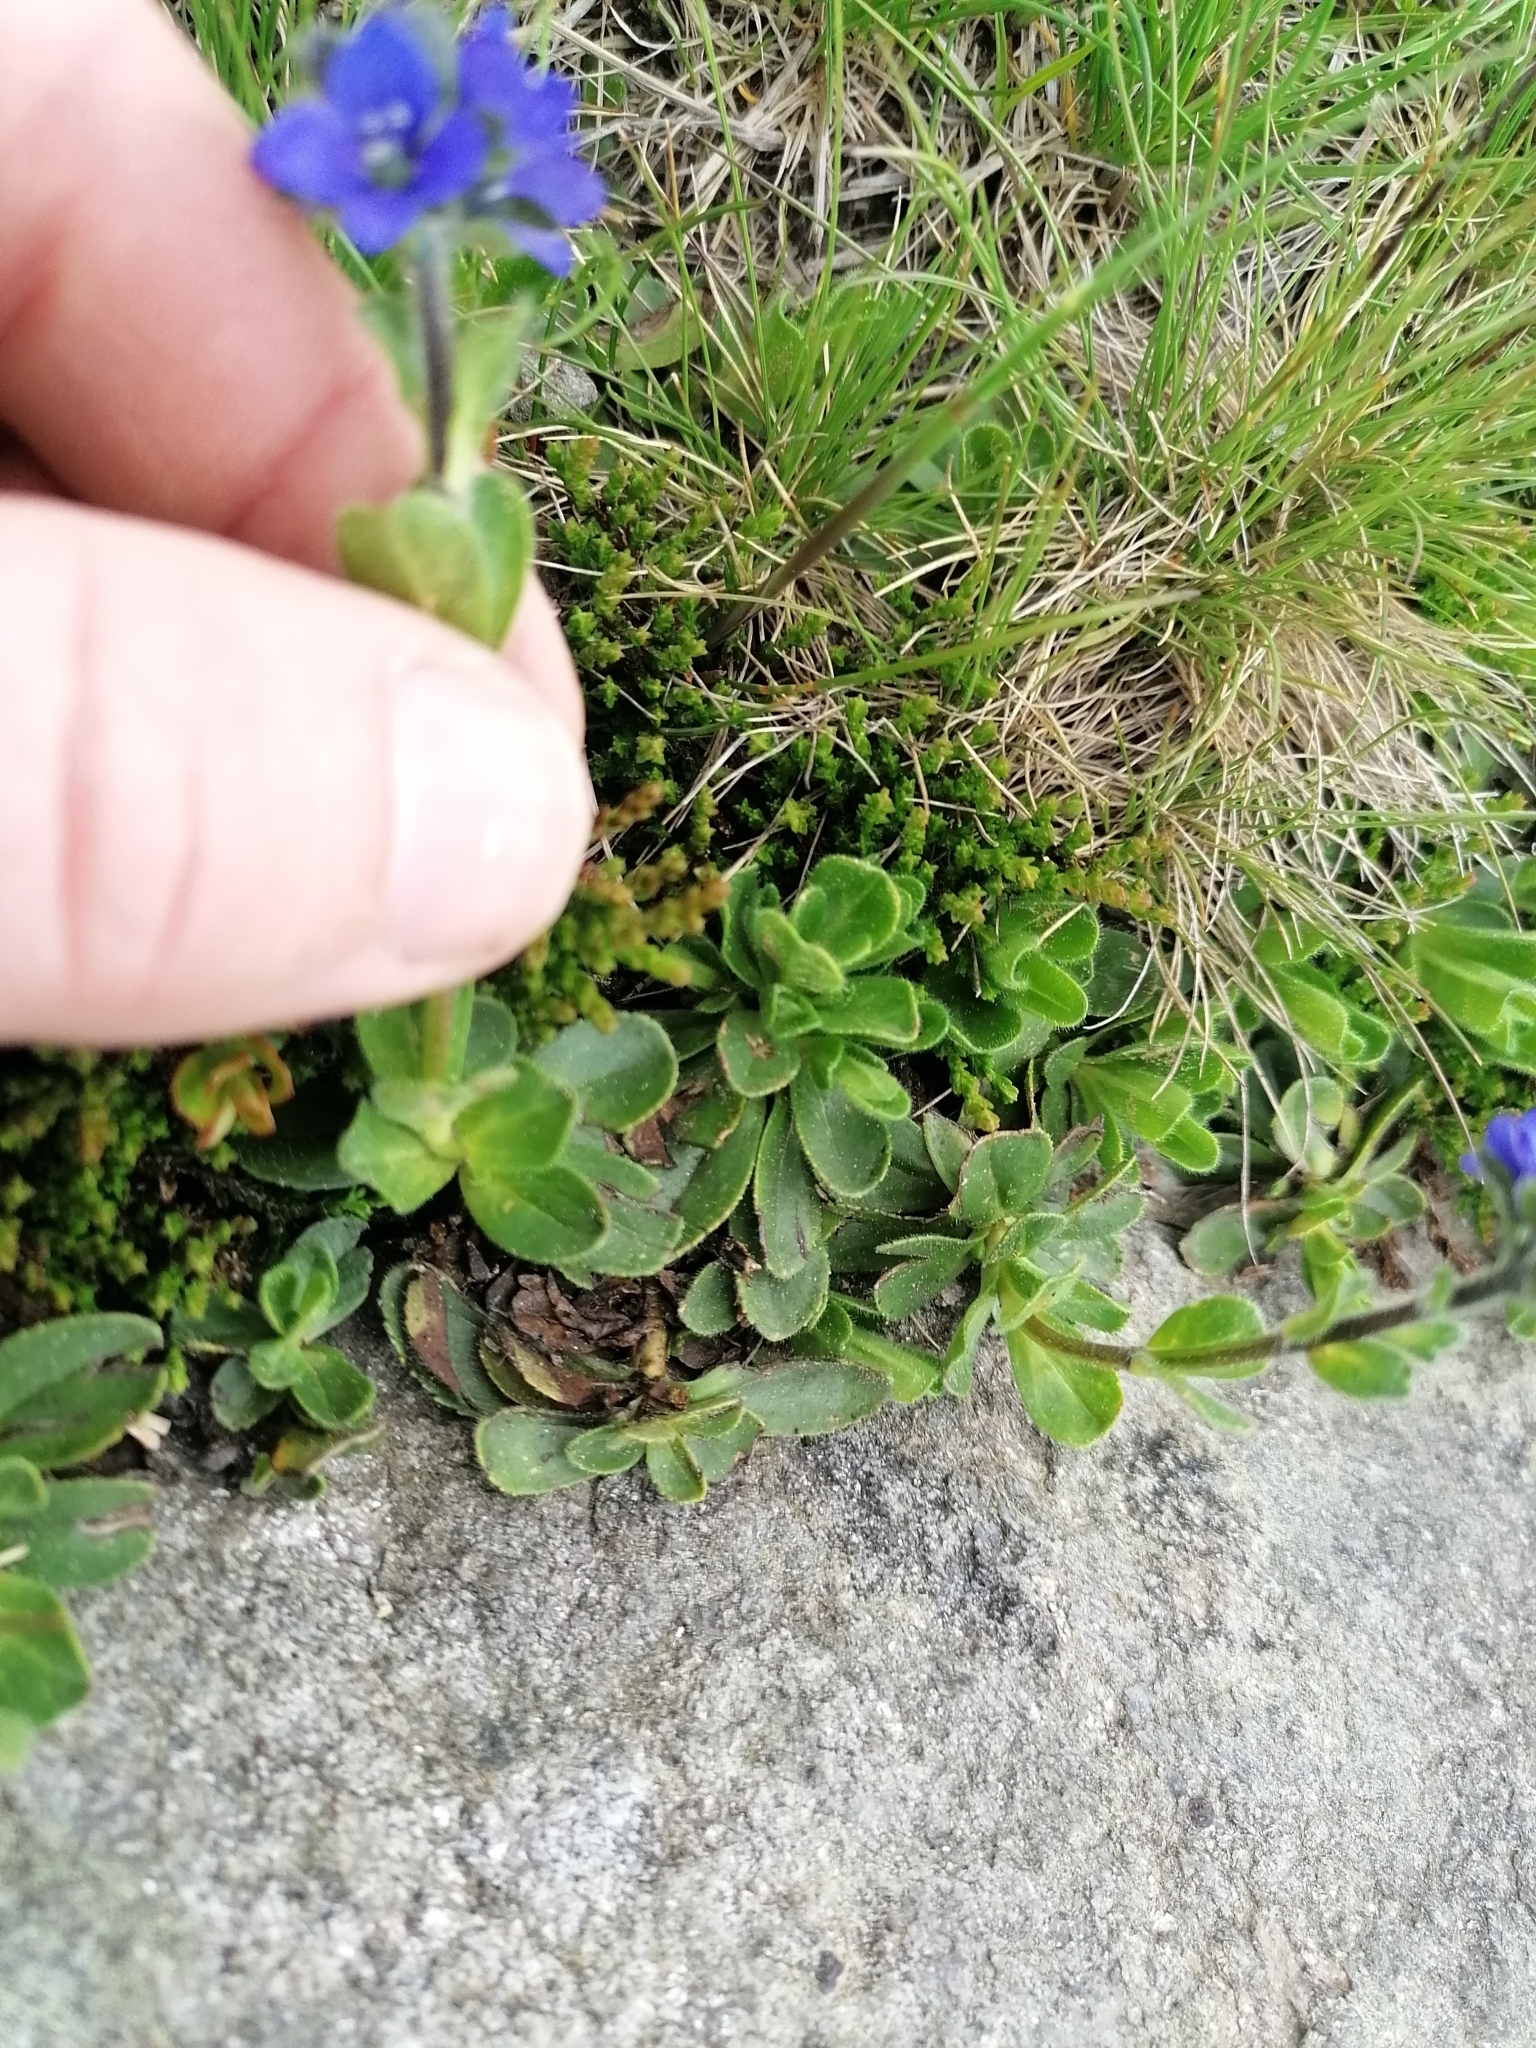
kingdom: Plantae
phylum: Tracheophyta
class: Magnoliopsida
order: Lamiales
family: Plantaginaceae
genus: Veronica
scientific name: Veronica bellidioides
